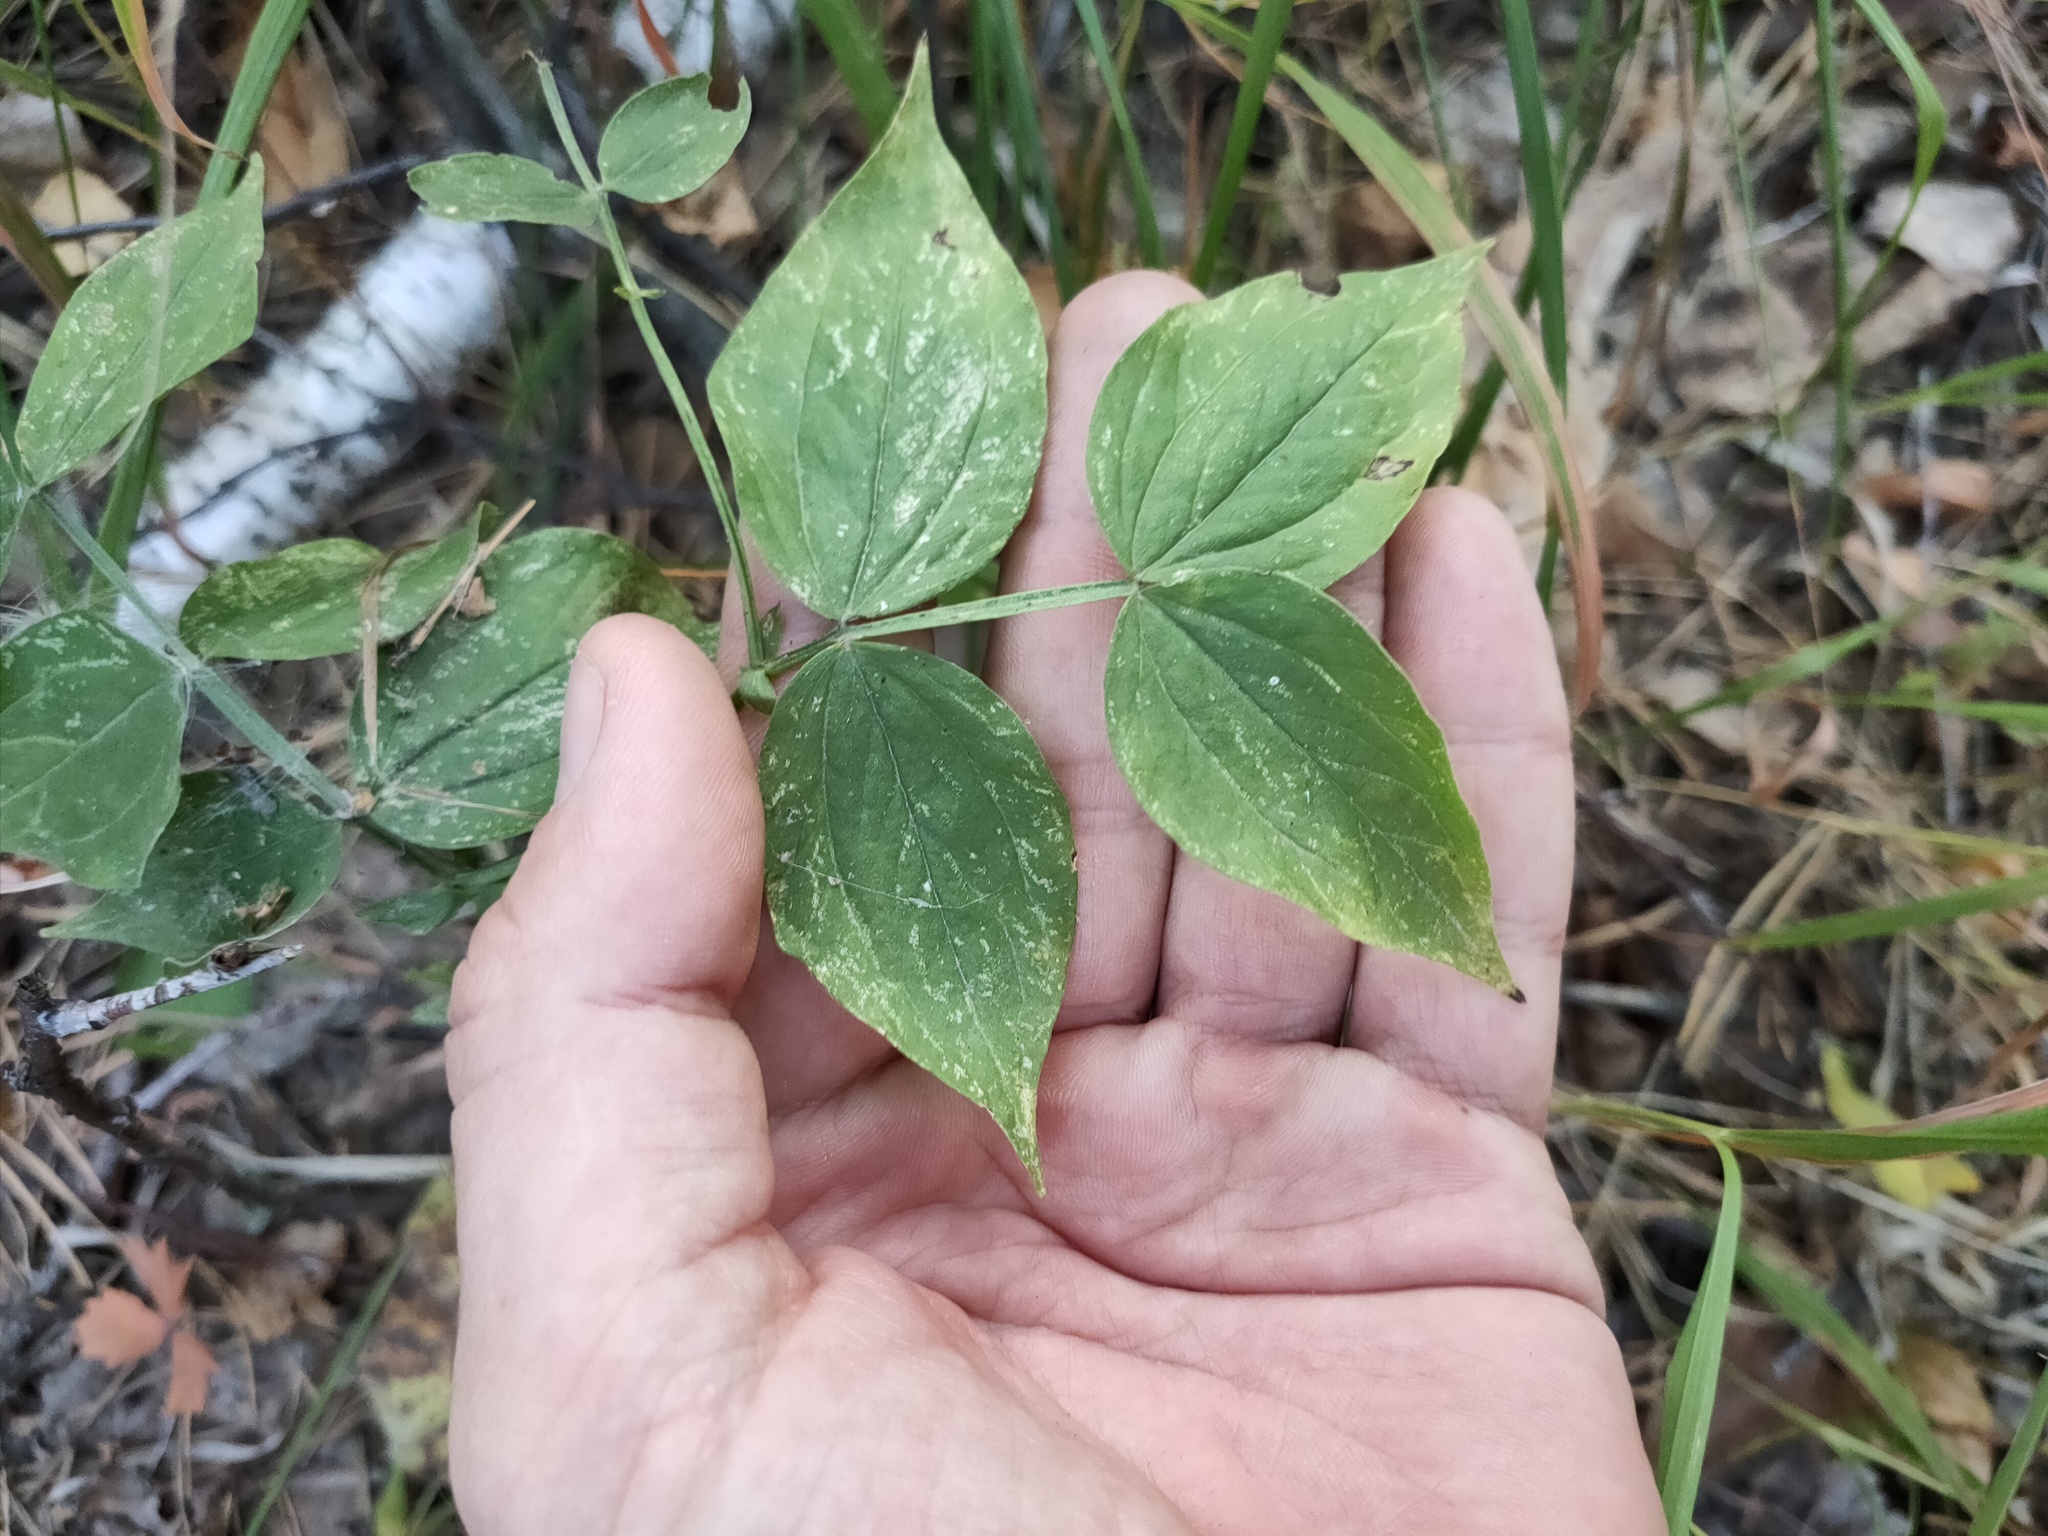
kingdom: Plantae
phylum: Tracheophyta
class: Magnoliopsida
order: Fabales
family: Fabaceae
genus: Lathyrus
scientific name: Lathyrus vernus
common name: Spring pea
